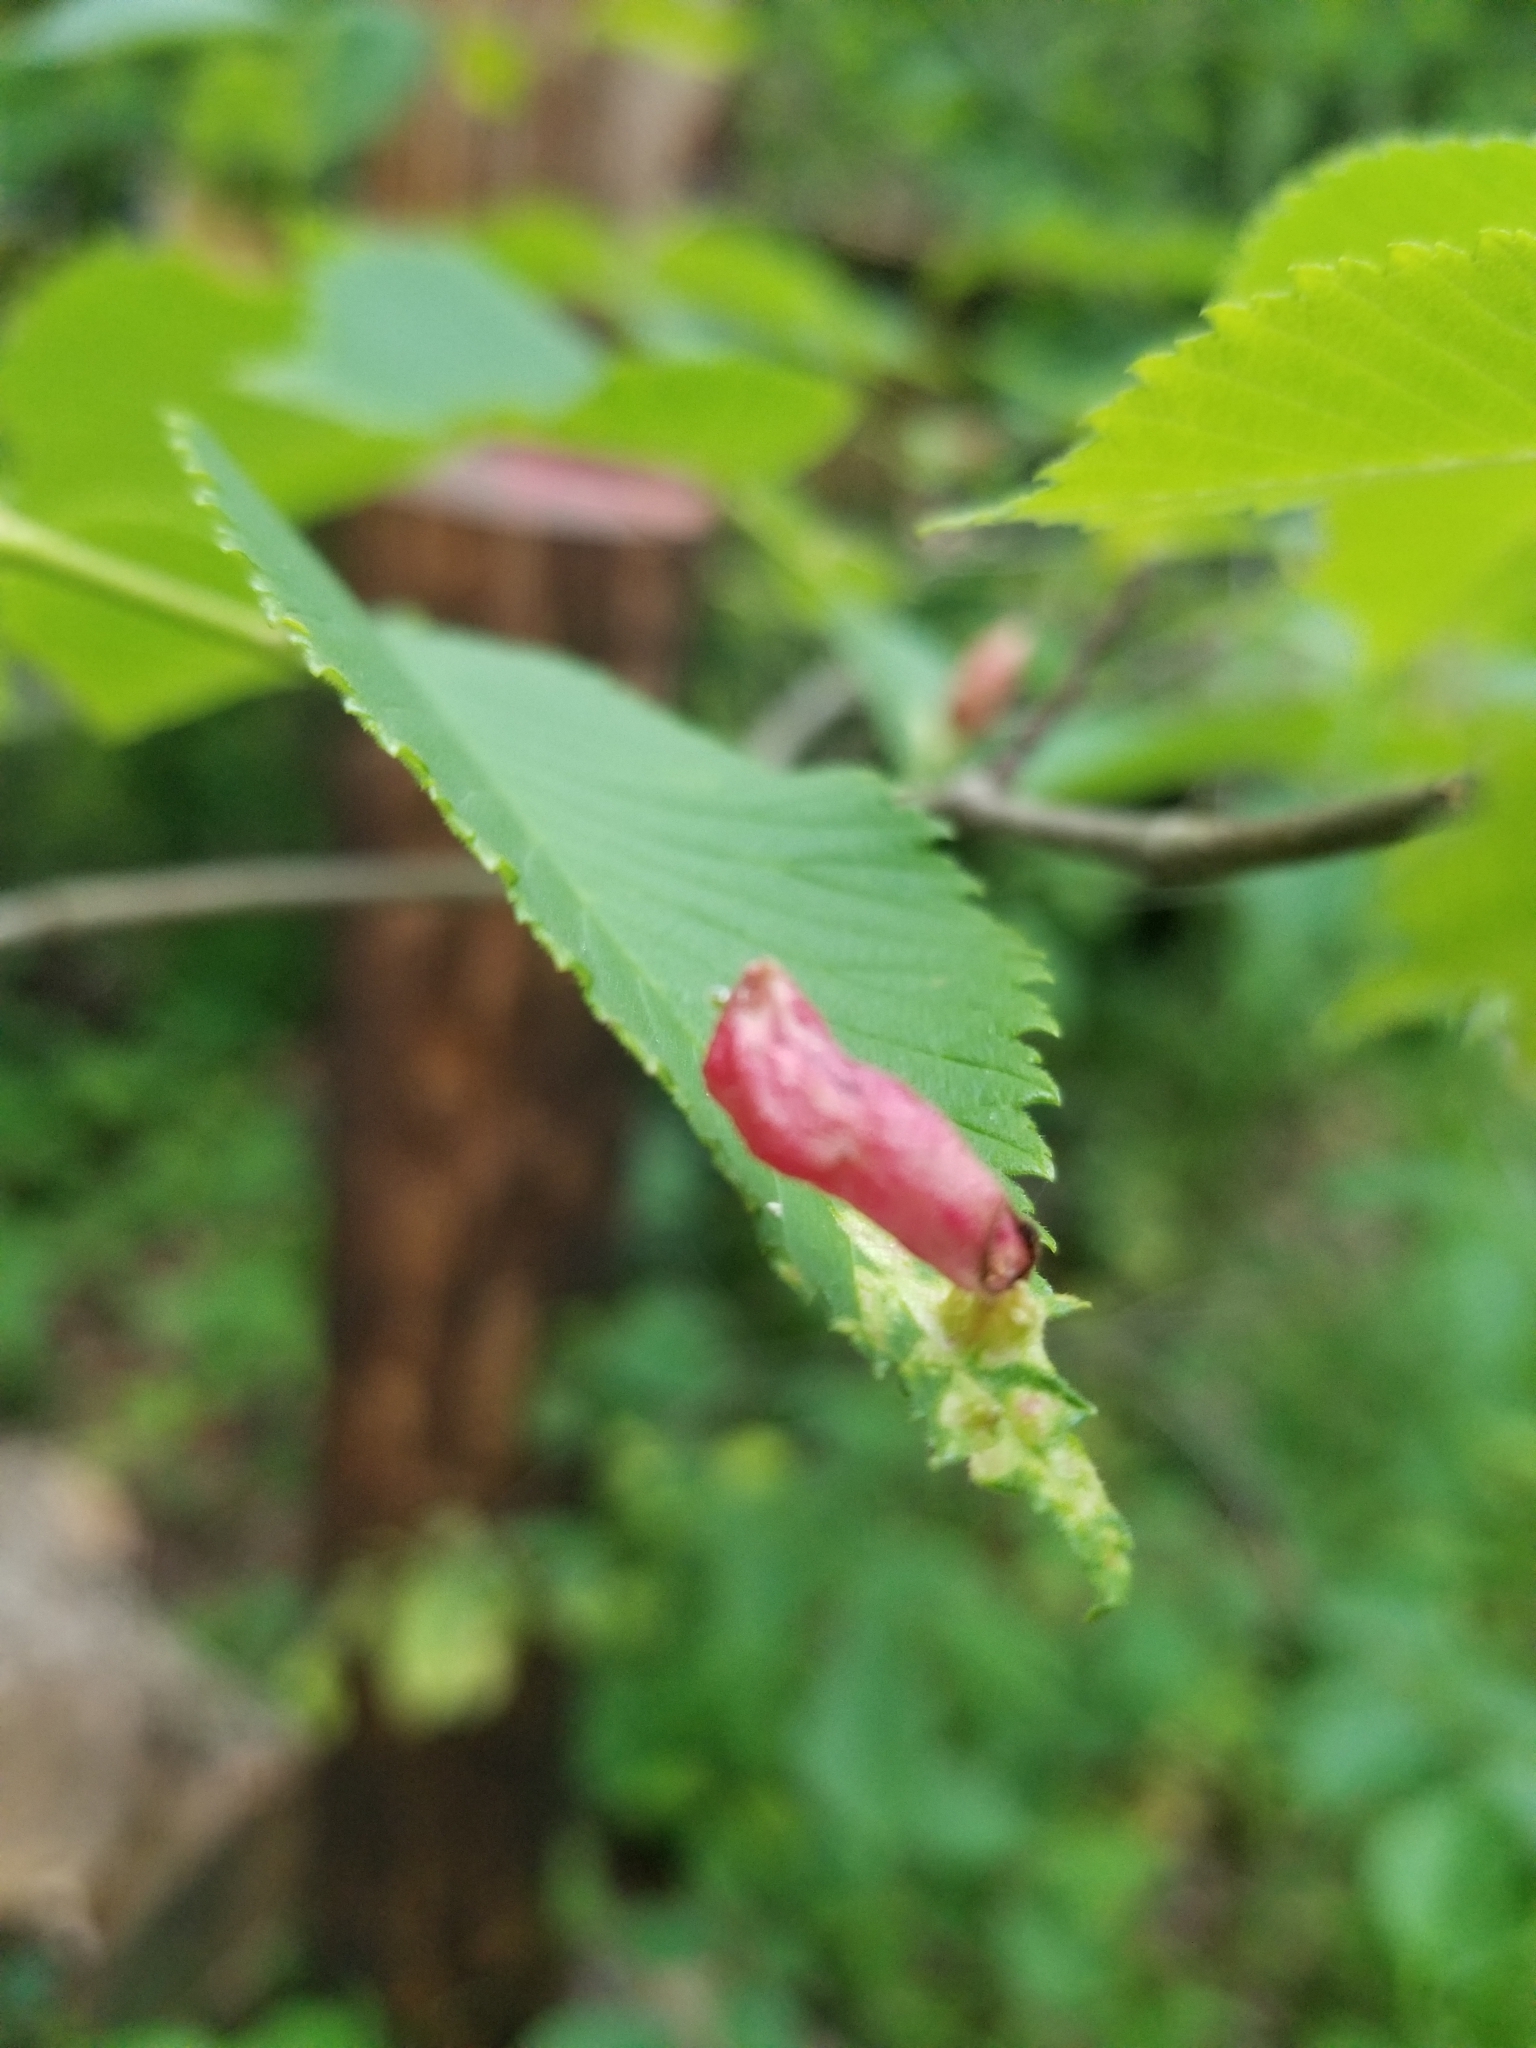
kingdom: Animalia
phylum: Arthropoda
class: Insecta
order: Hemiptera
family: Aphididae
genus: Tetraneura
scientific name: Tetraneura nigriabdominalis
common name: Aphid
